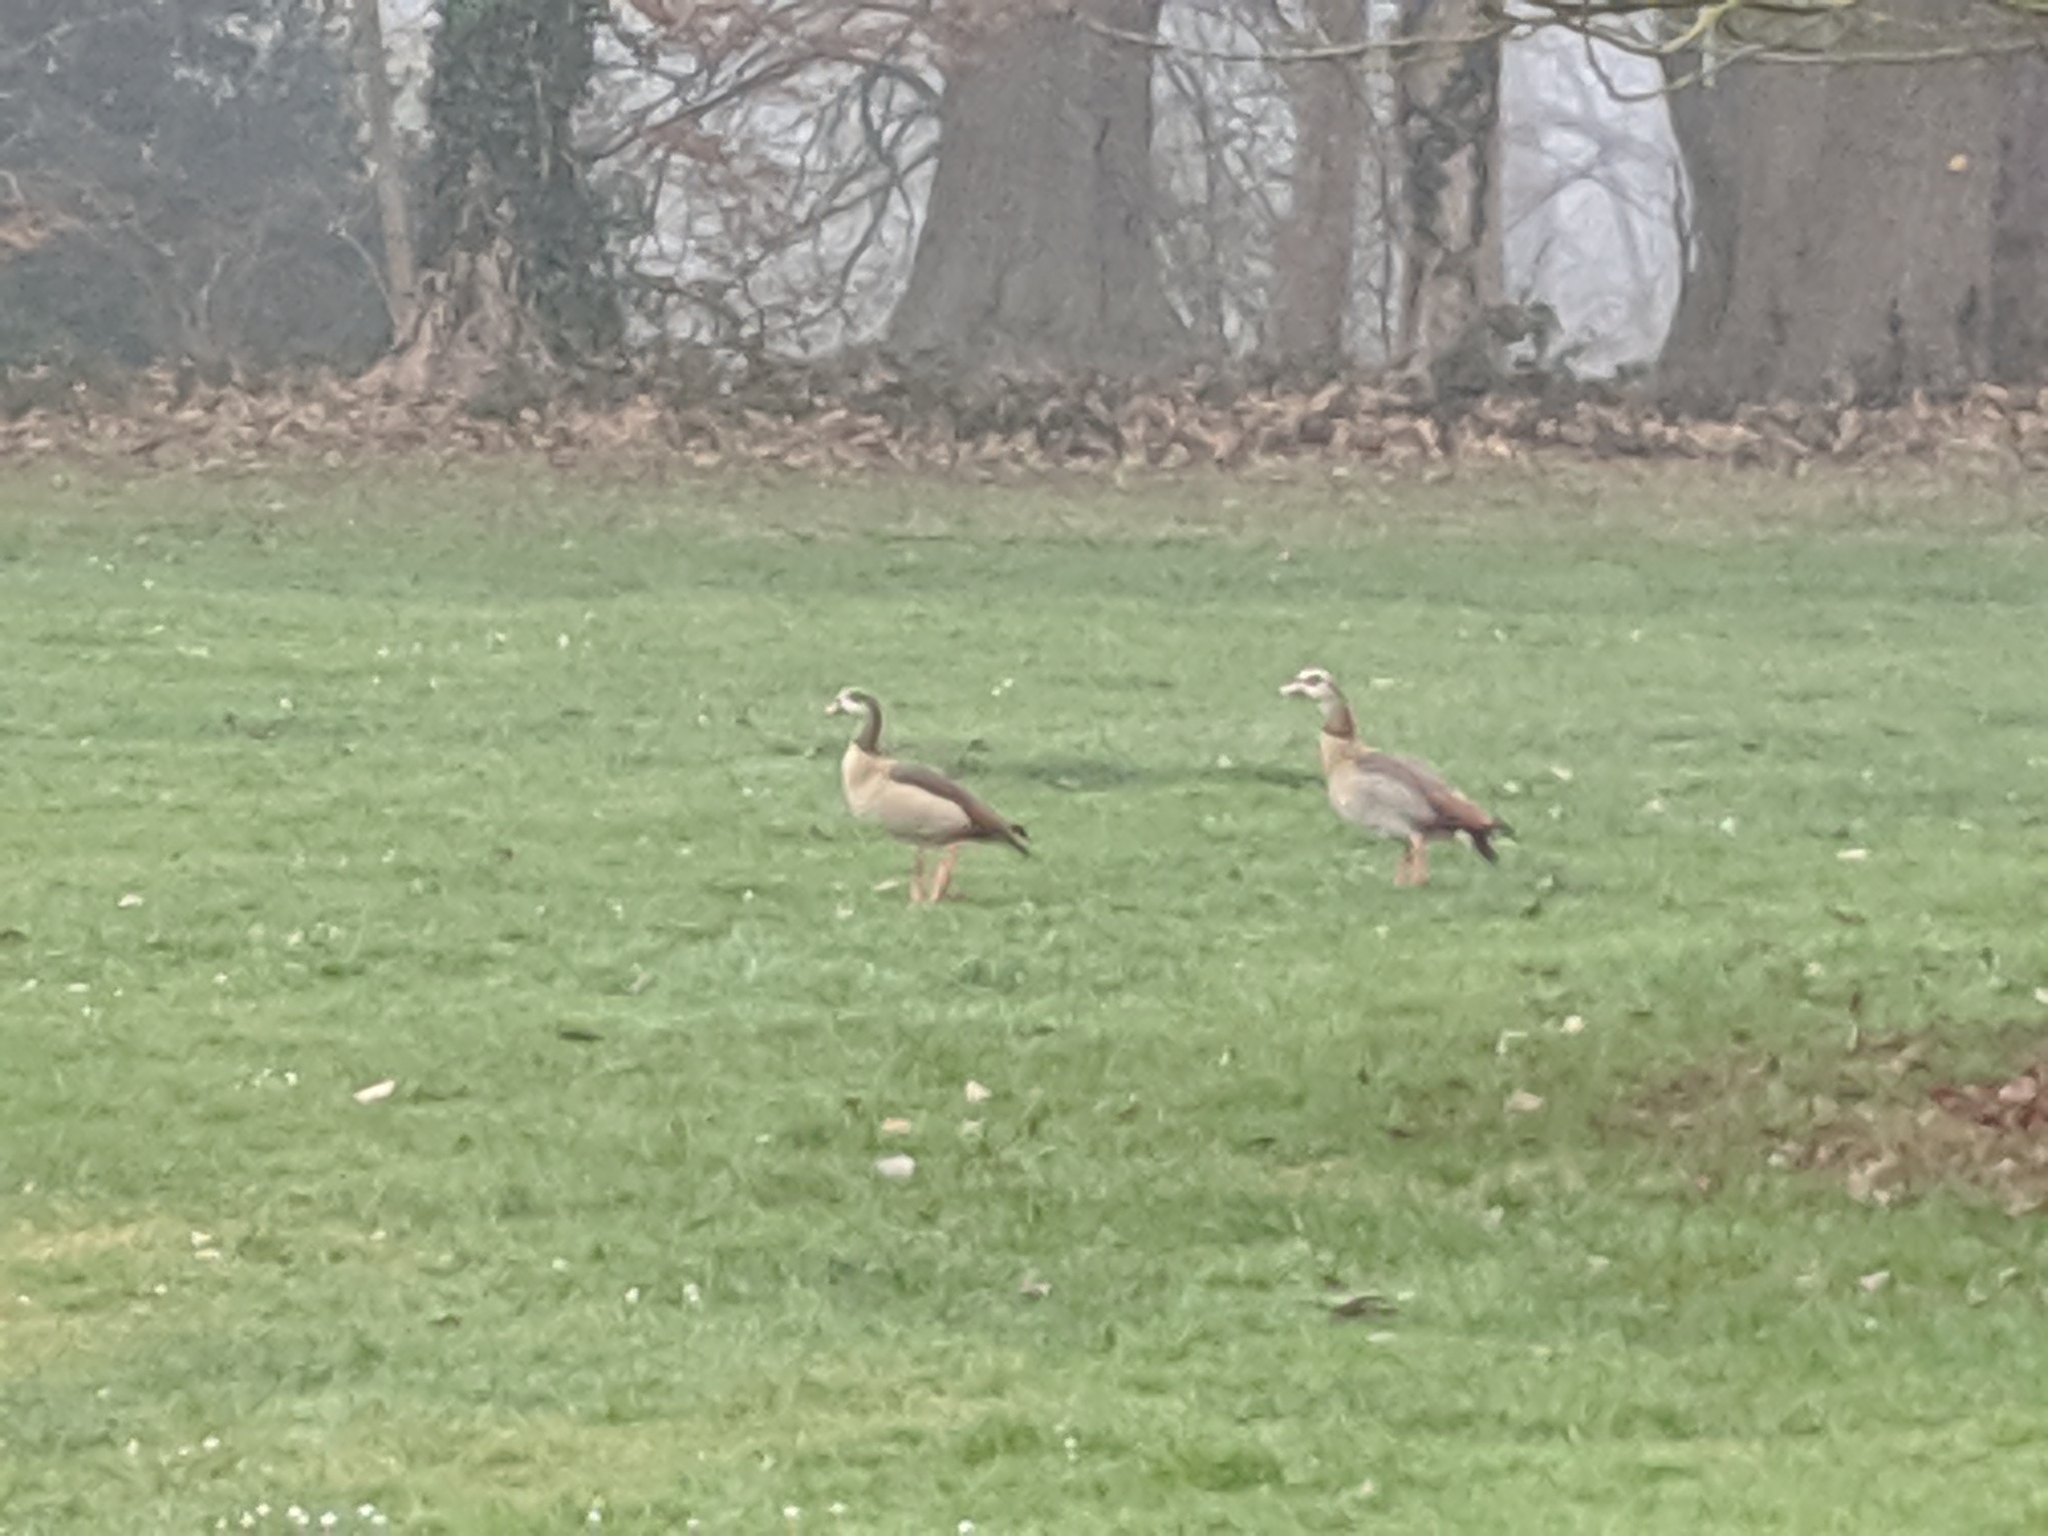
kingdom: Animalia
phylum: Chordata
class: Aves
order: Anseriformes
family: Anatidae
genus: Alopochen
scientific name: Alopochen aegyptiaca
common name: Egyptian goose
